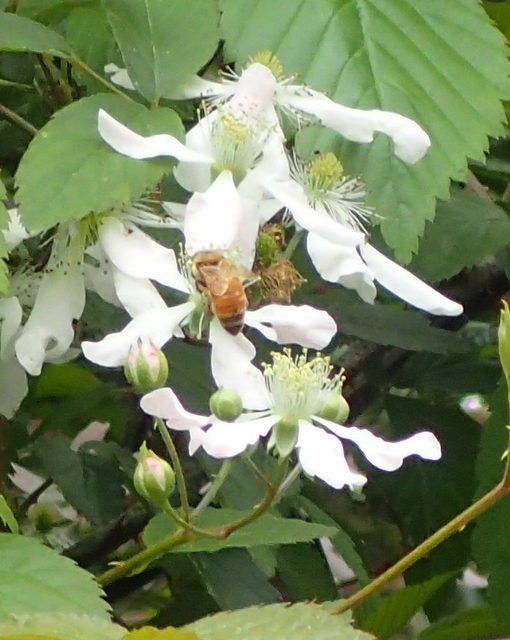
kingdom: Animalia
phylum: Arthropoda
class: Insecta
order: Hymenoptera
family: Apidae
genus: Apis
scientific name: Apis mellifera
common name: Honey bee
